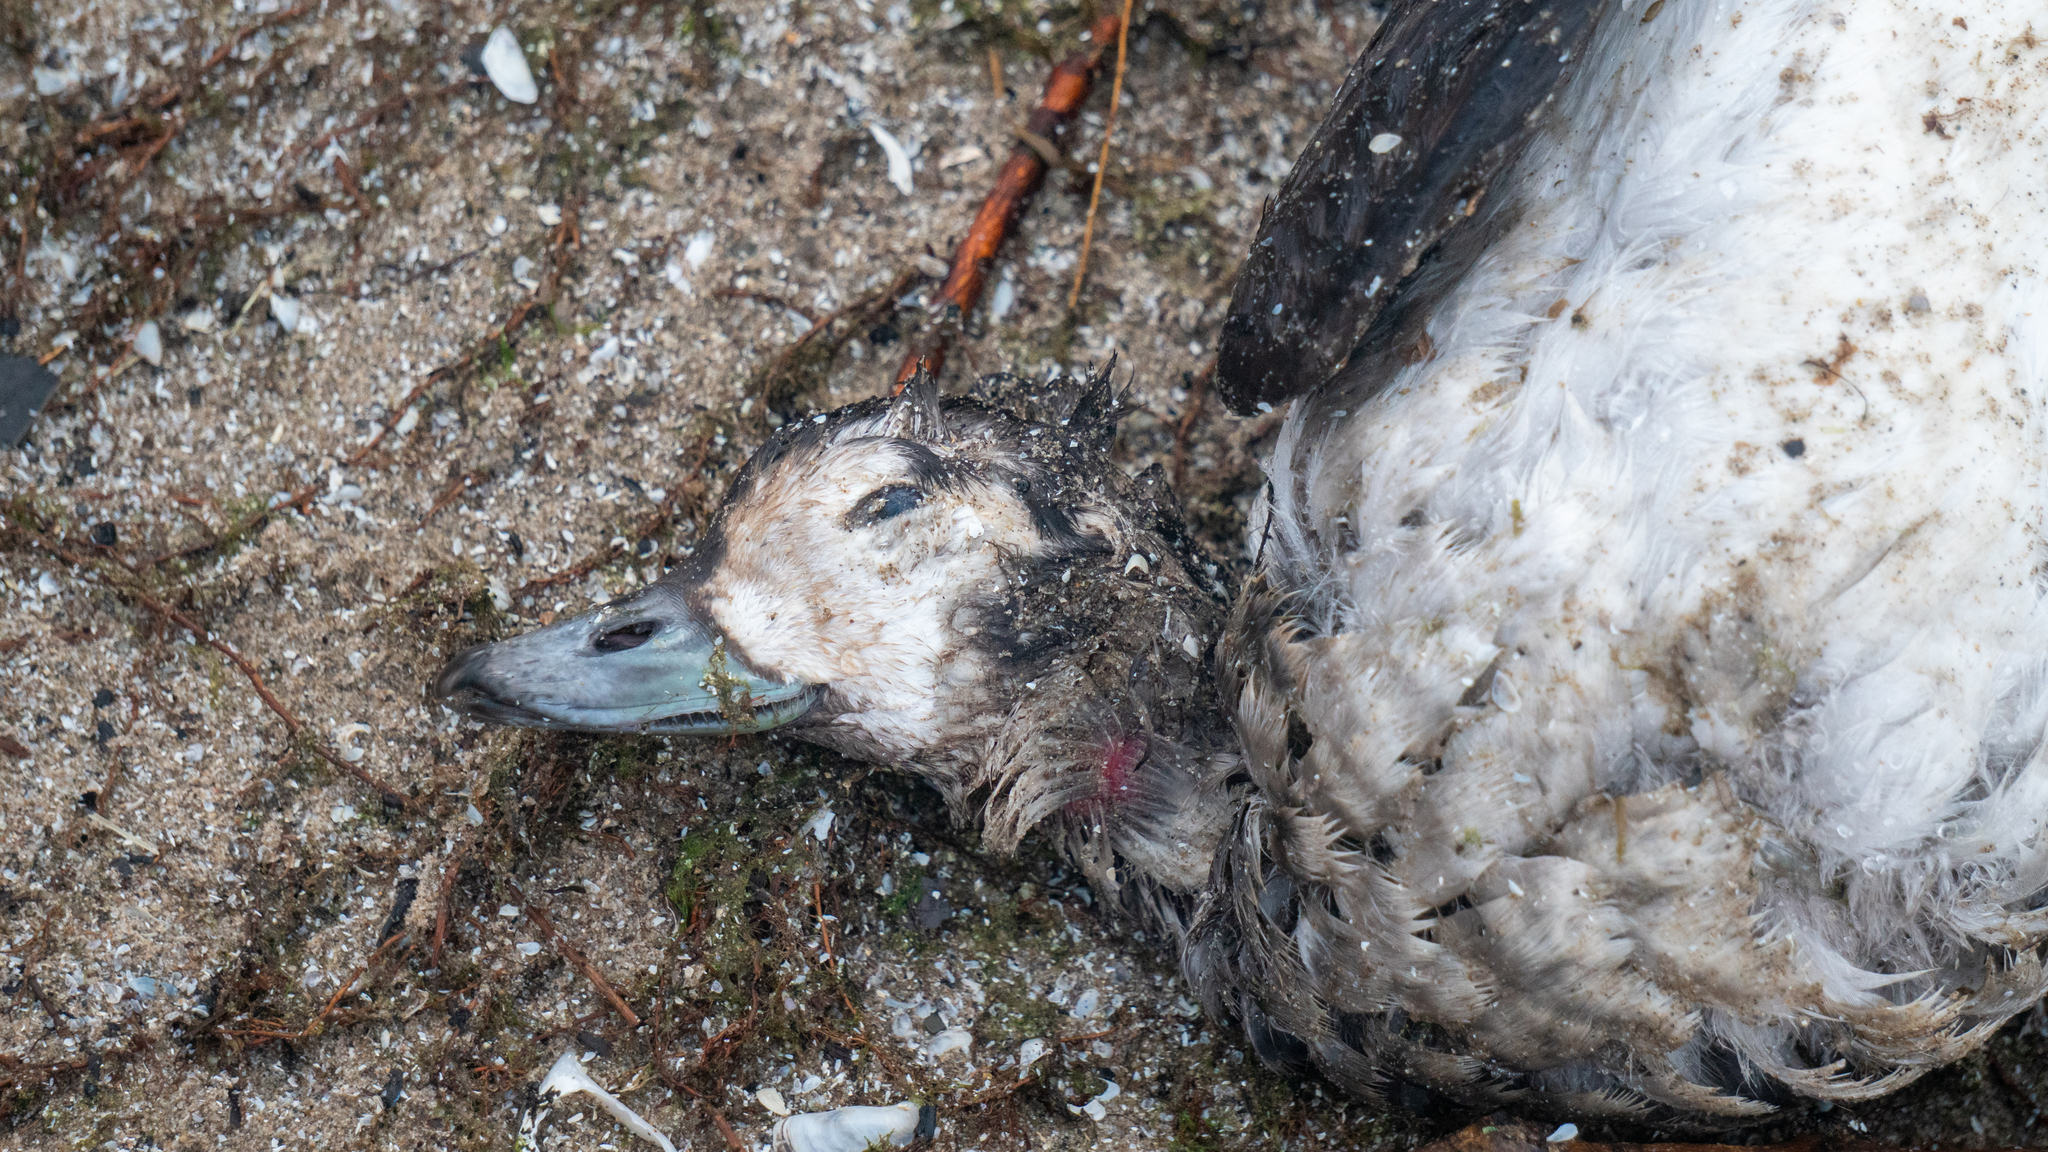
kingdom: Animalia
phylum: Chordata
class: Aves
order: Anseriformes
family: Anatidae
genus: Clangula
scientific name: Clangula hyemalis
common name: Long-tailed duck
